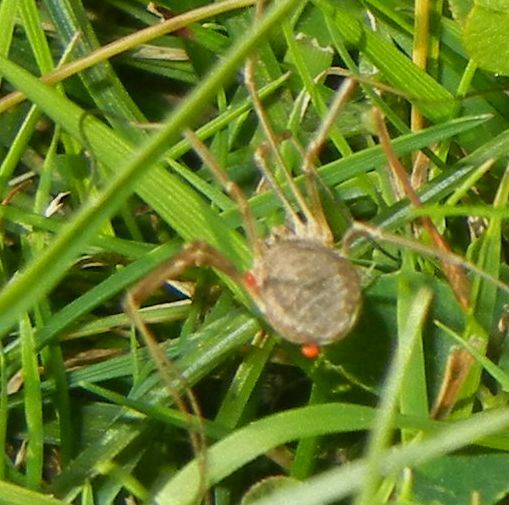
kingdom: Animalia
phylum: Arthropoda
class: Arachnida
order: Opiliones
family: Phalangiidae
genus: Phalangium
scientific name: Phalangium opilio
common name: Daddy longleg
